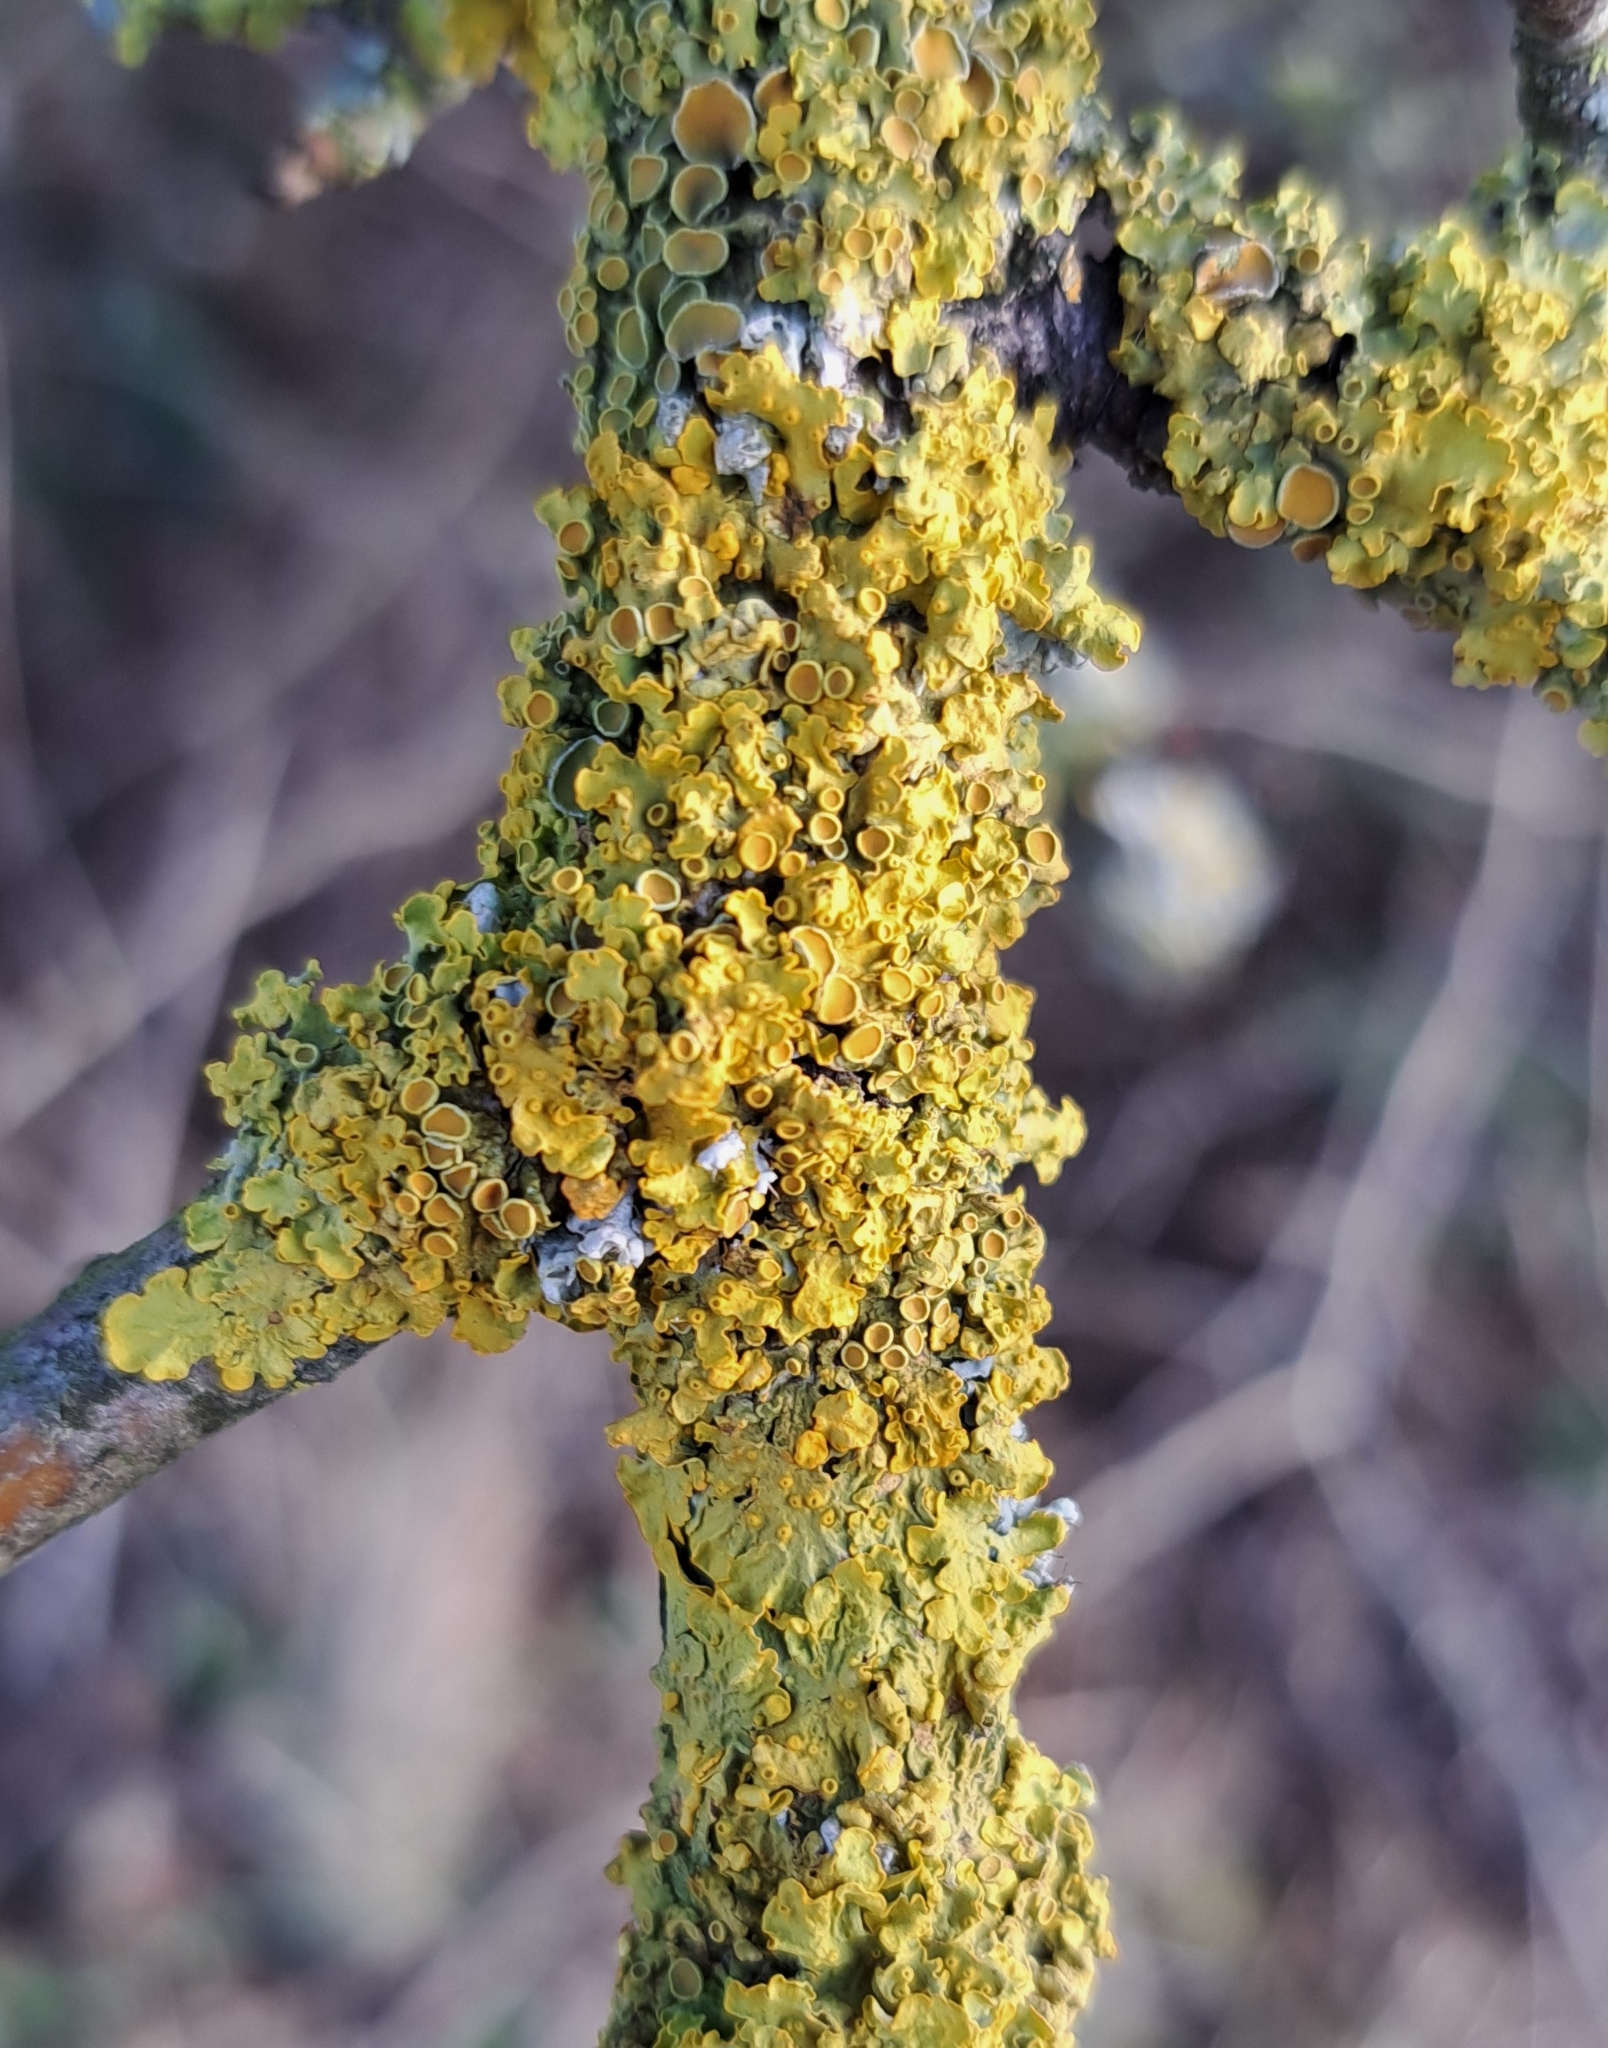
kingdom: Fungi
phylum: Ascomycota
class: Lecanoromycetes
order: Teloschistales
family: Teloschistaceae
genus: Xanthoria
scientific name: Xanthoria parietina
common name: Common orange lichen
